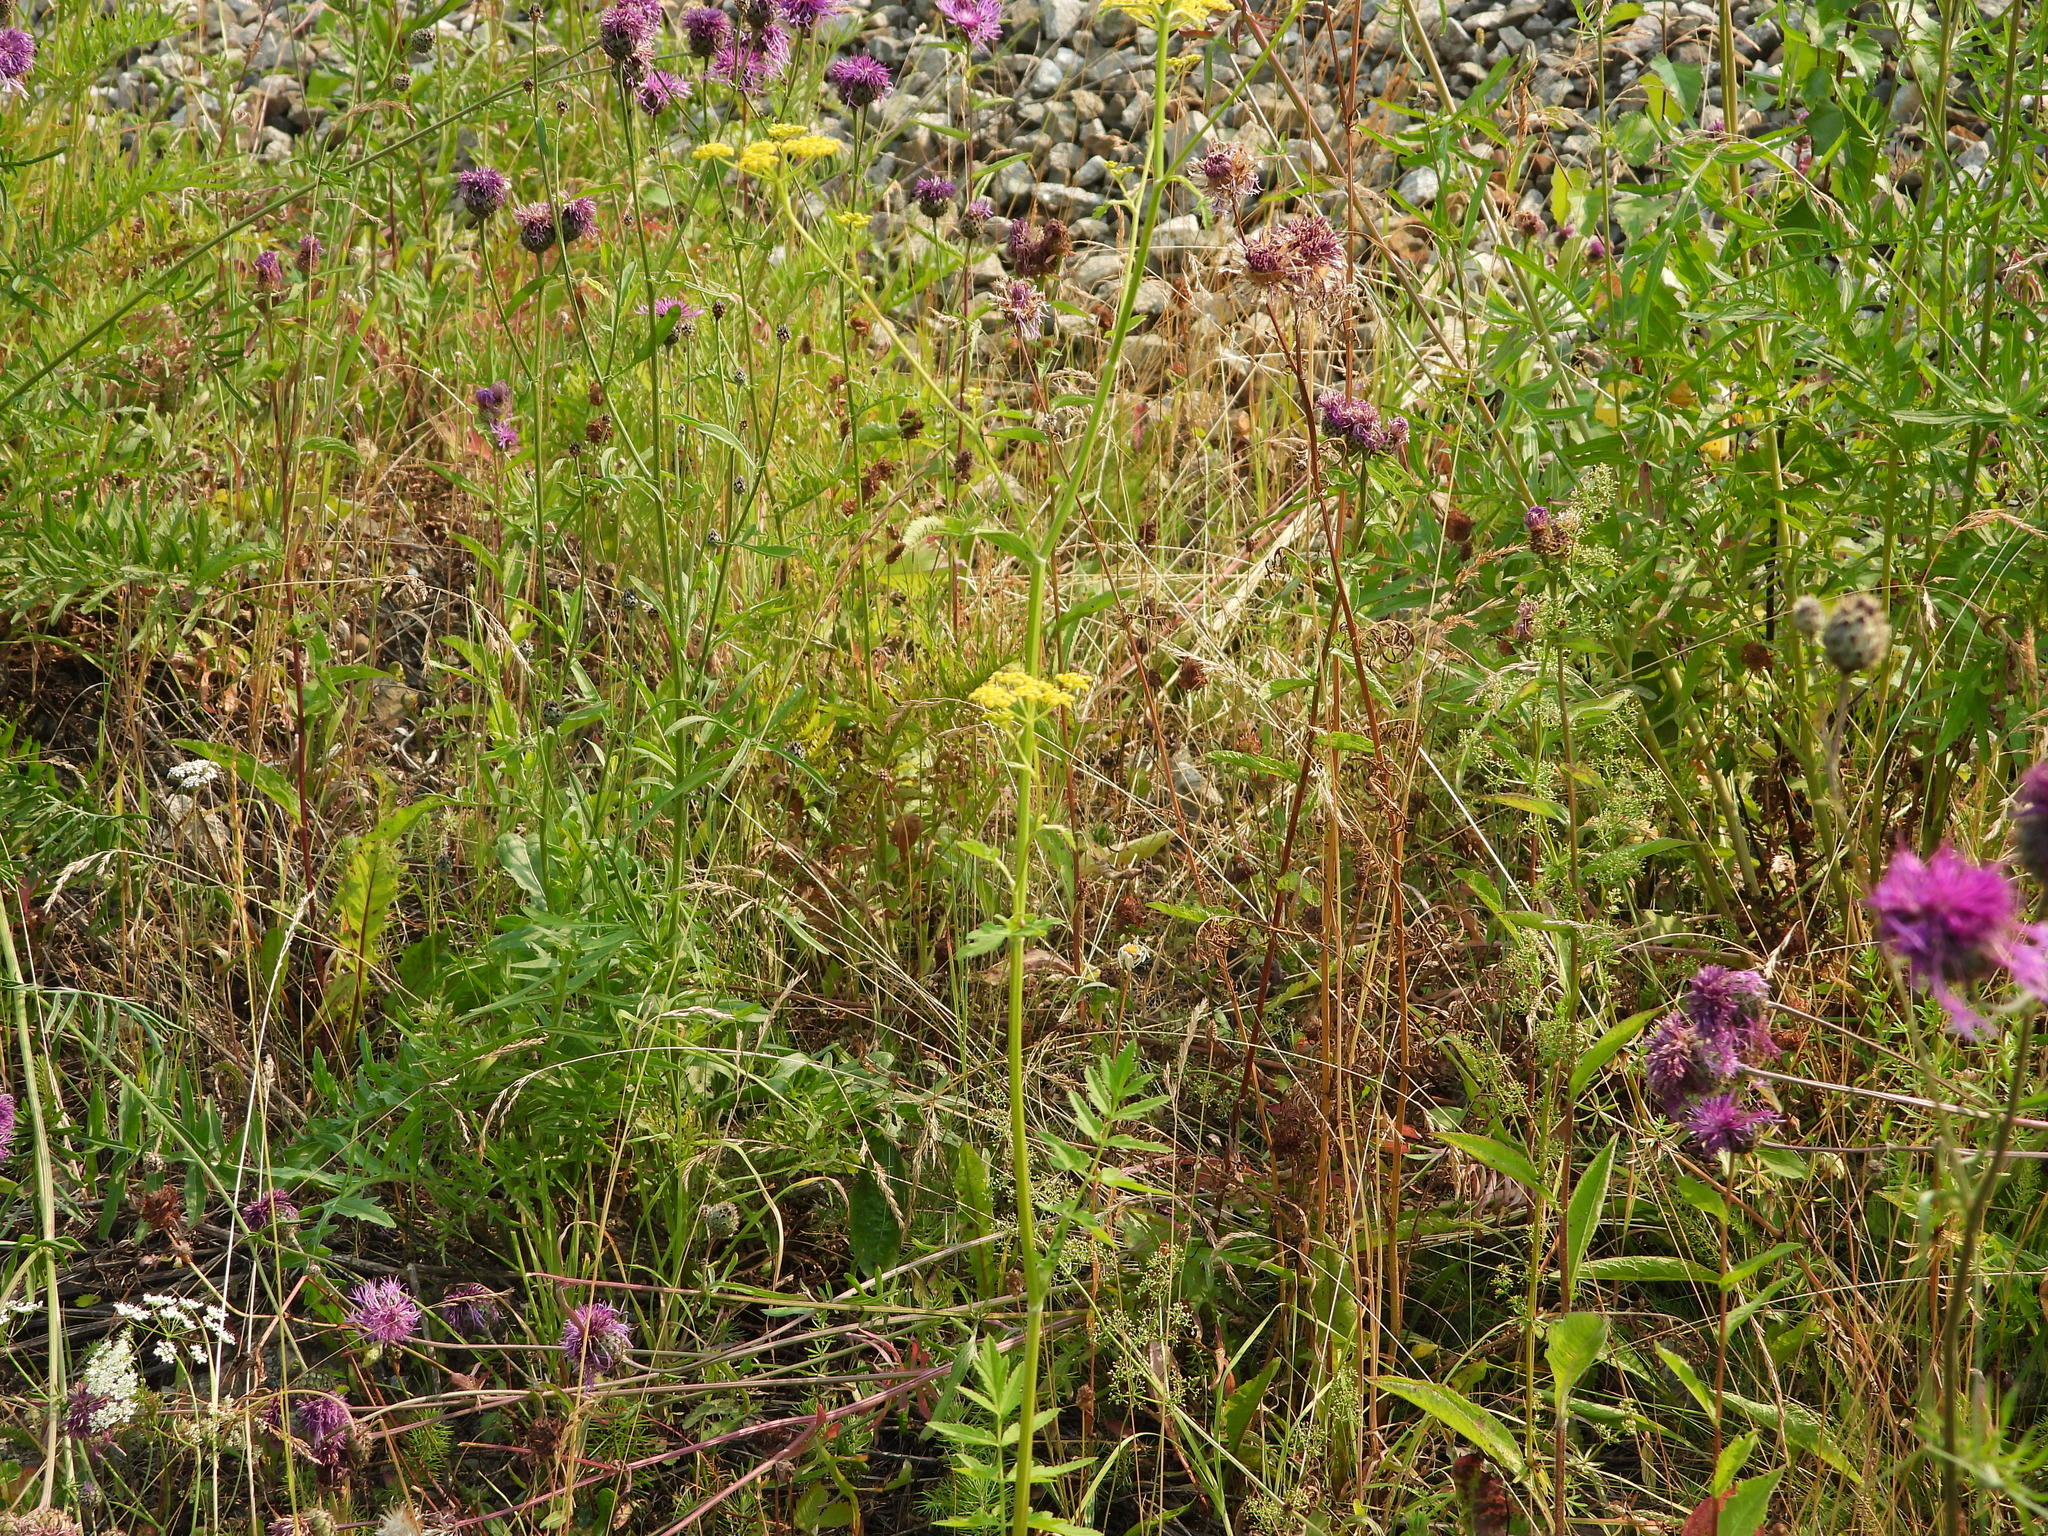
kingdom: Plantae
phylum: Tracheophyta
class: Magnoliopsida
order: Apiales
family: Apiaceae
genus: Pastinaca
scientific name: Pastinaca sativa
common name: Wild parsnip
